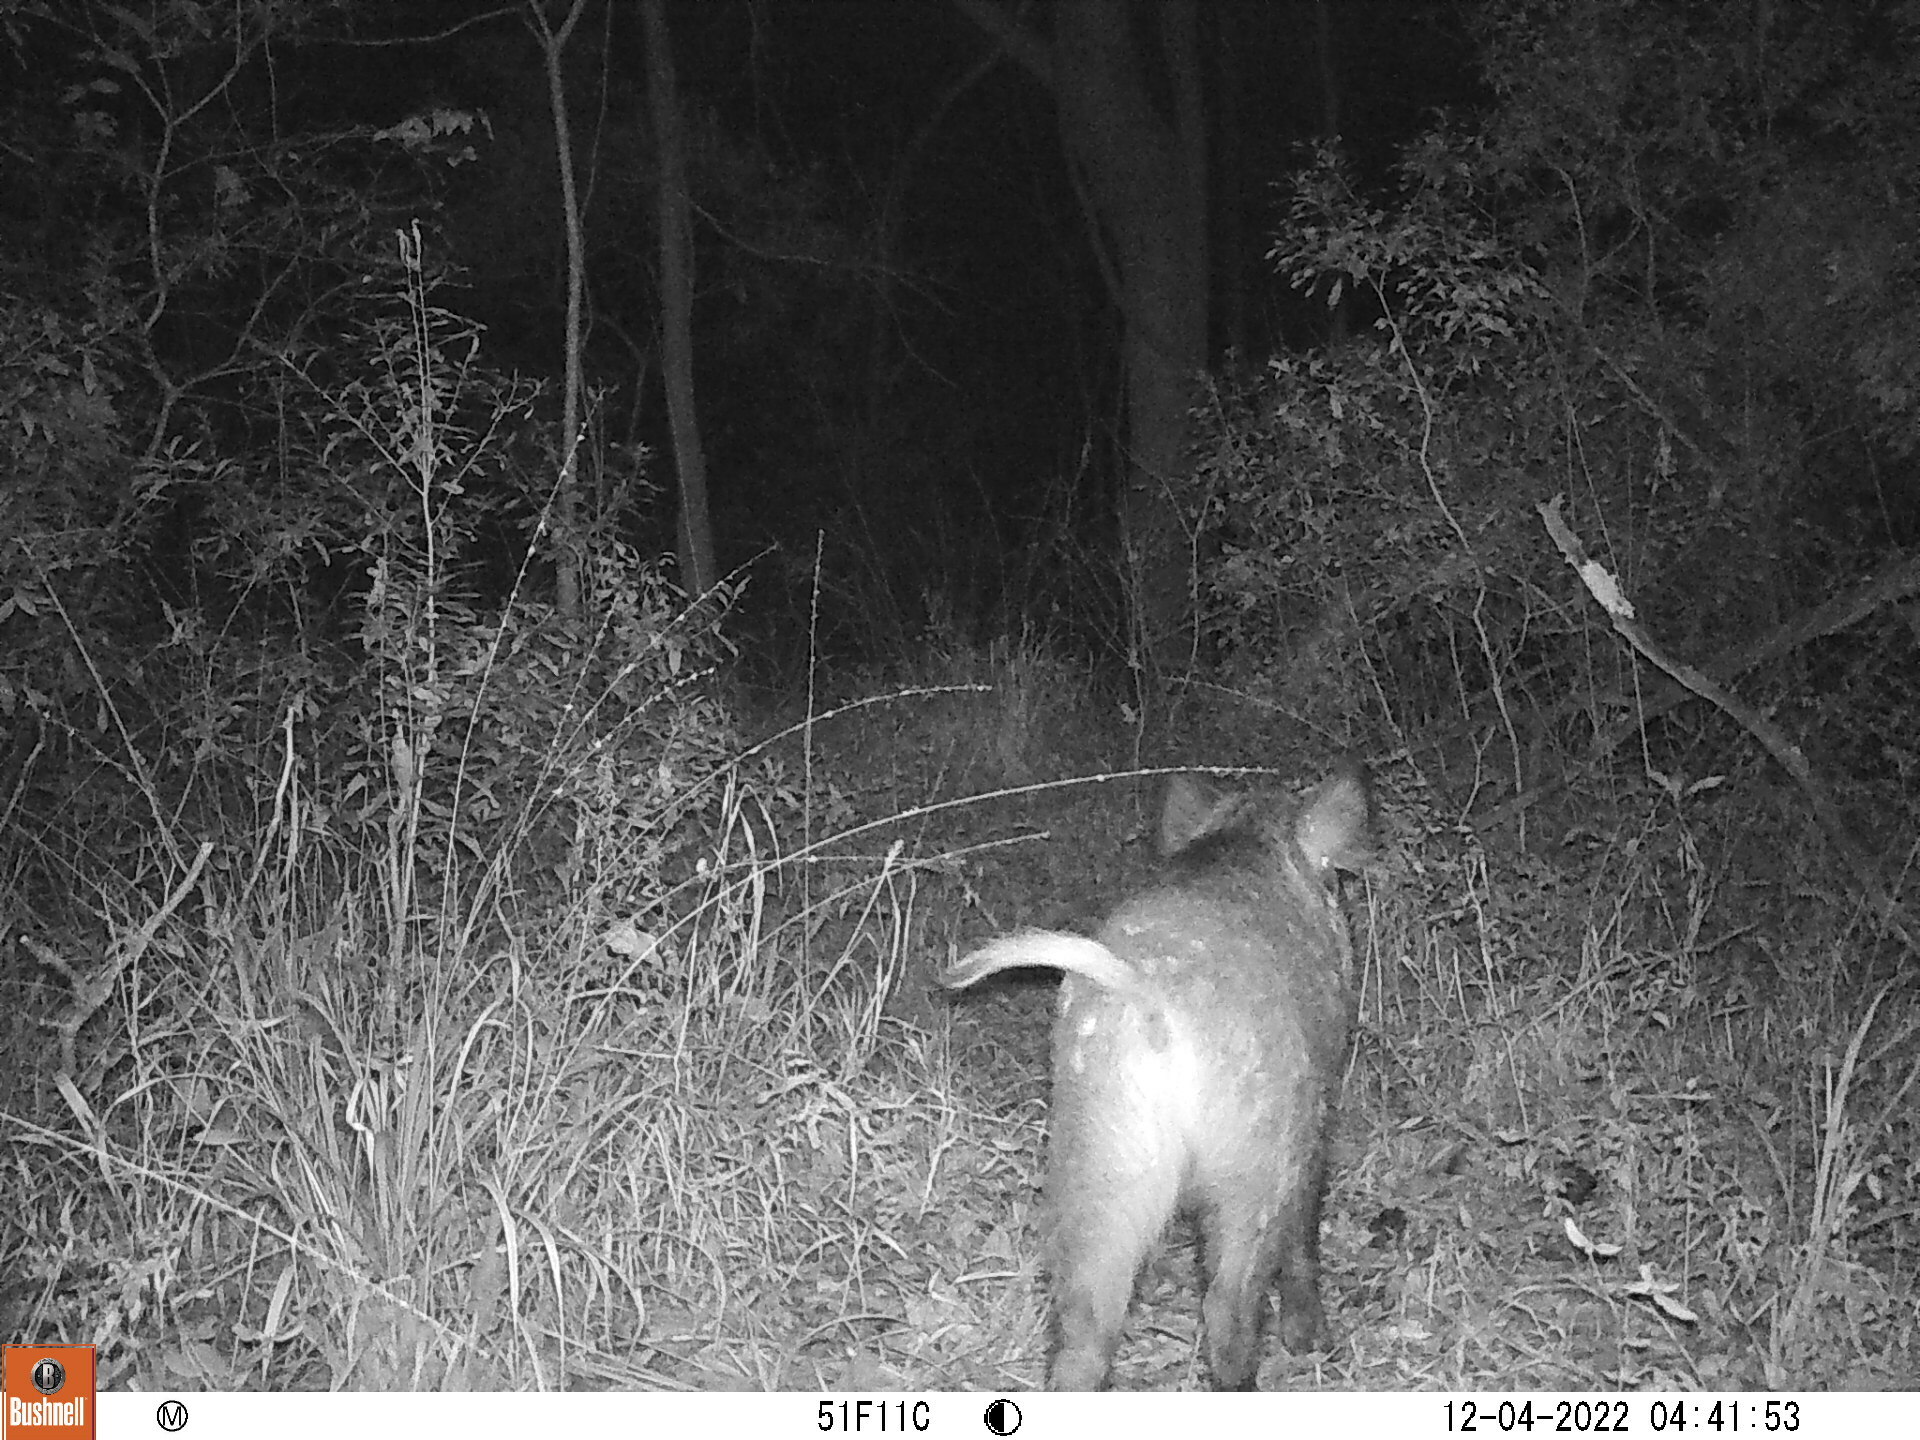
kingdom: Animalia
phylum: Chordata
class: Mammalia
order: Artiodactyla
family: Suidae
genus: Sus
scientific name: Sus scrofa
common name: Wild boar
